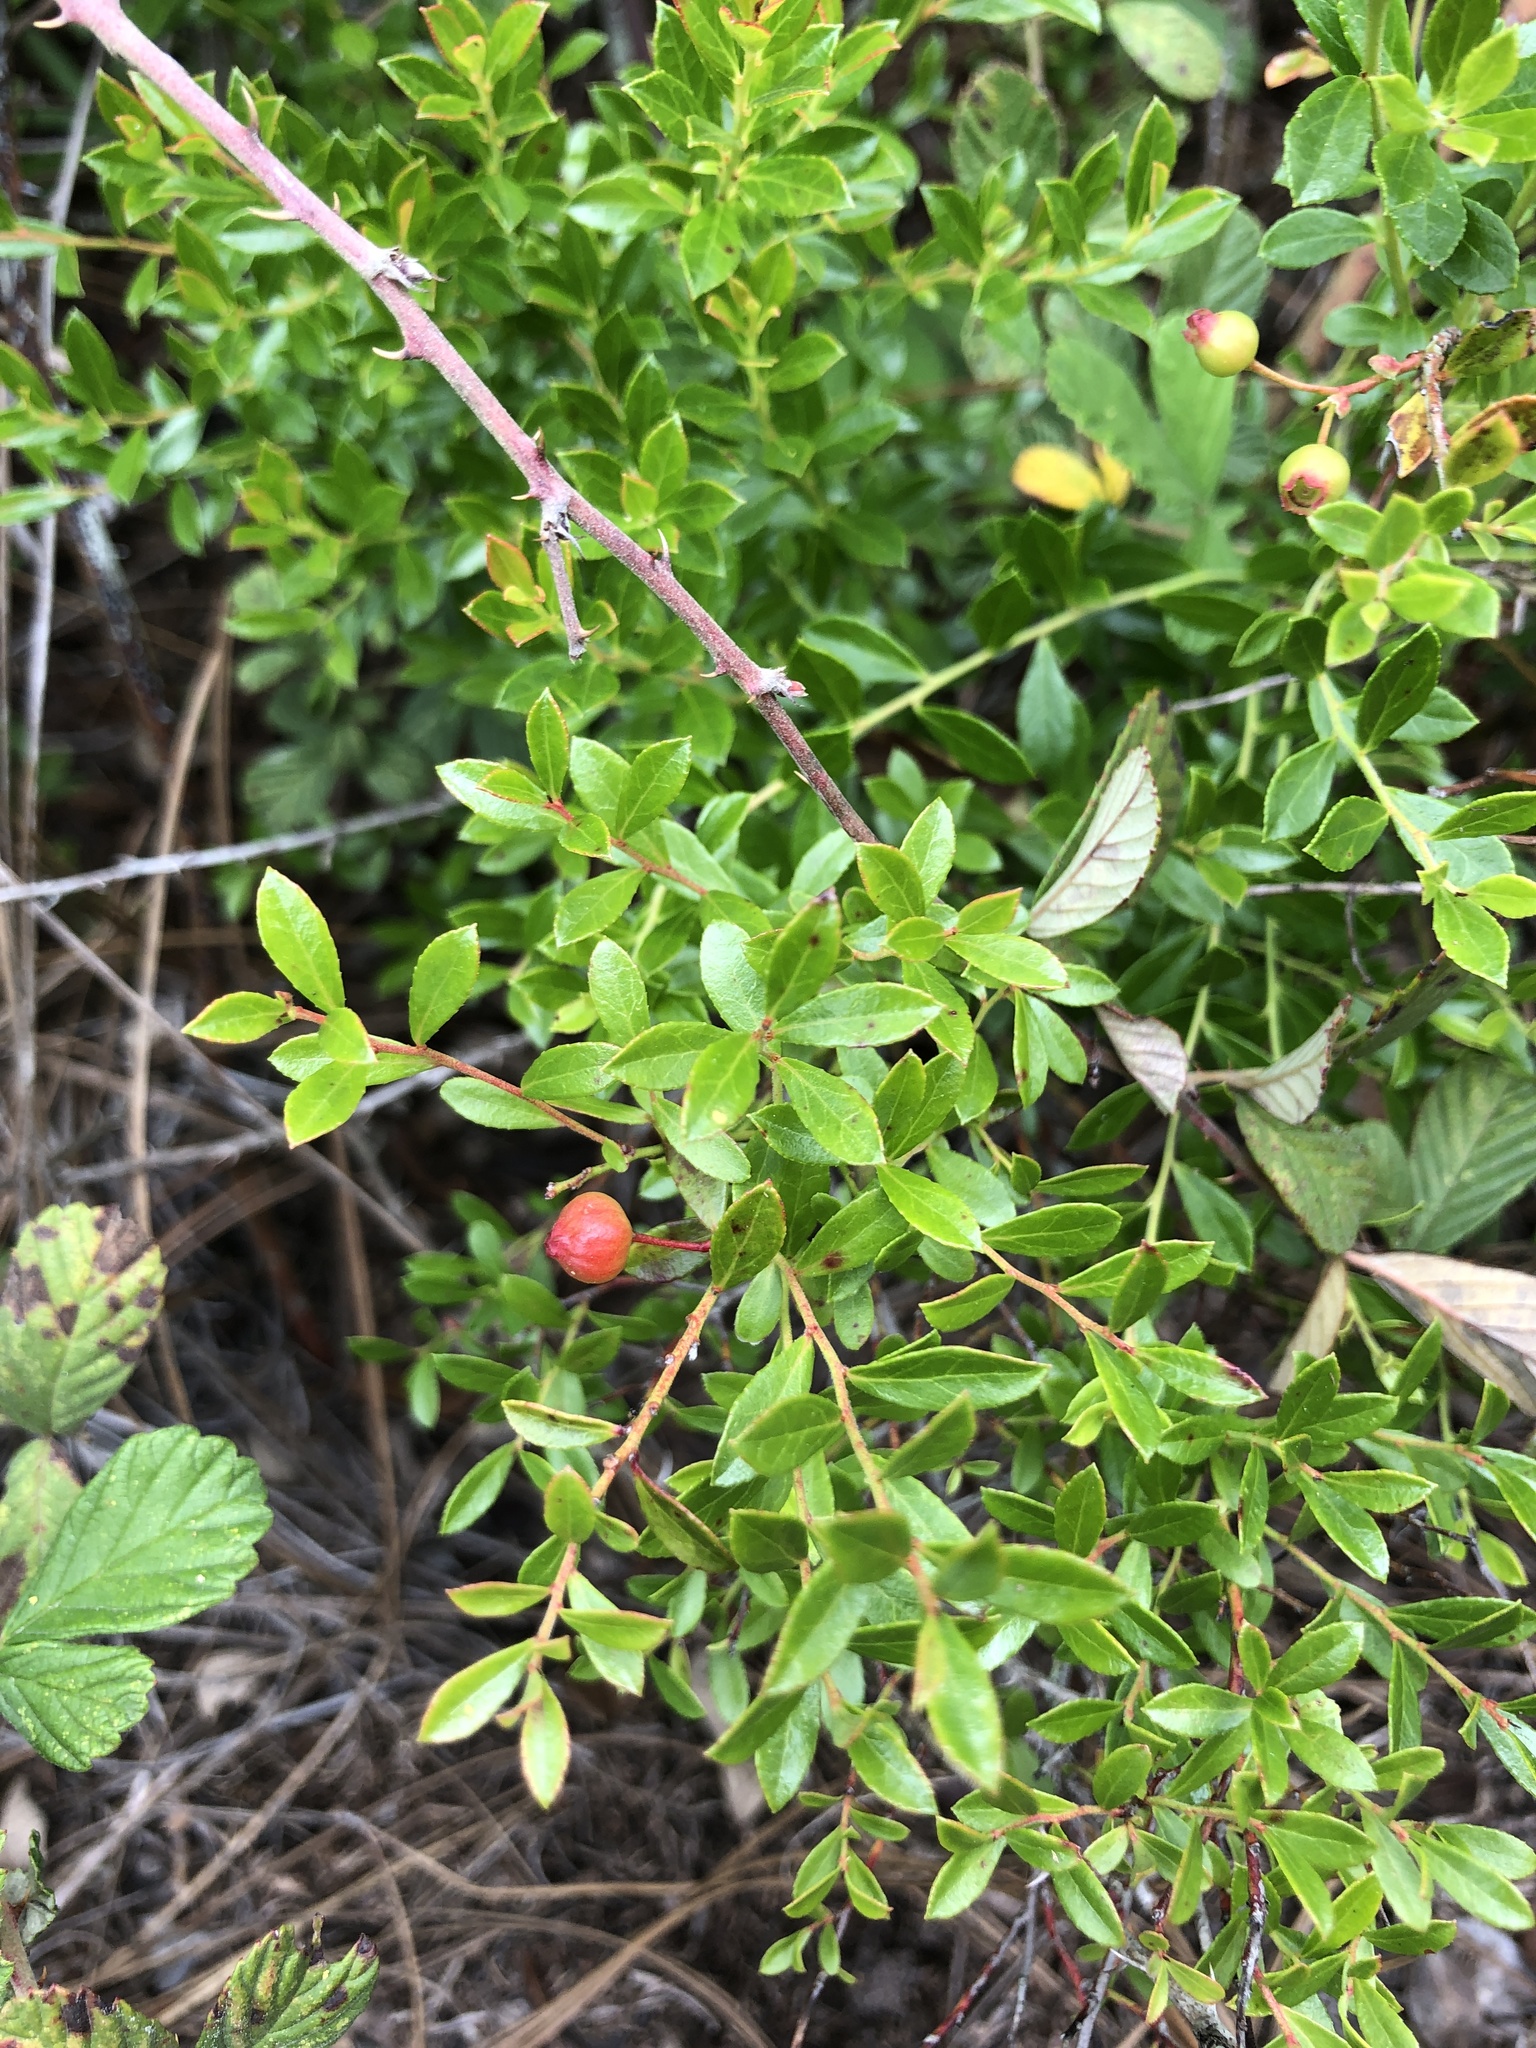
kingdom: Plantae
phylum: Tracheophyta
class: Magnoliopsida
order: Ericales
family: Ericaceae
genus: Vaccinium
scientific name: Vaccinium myrsinites
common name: Evergreen blueberry
